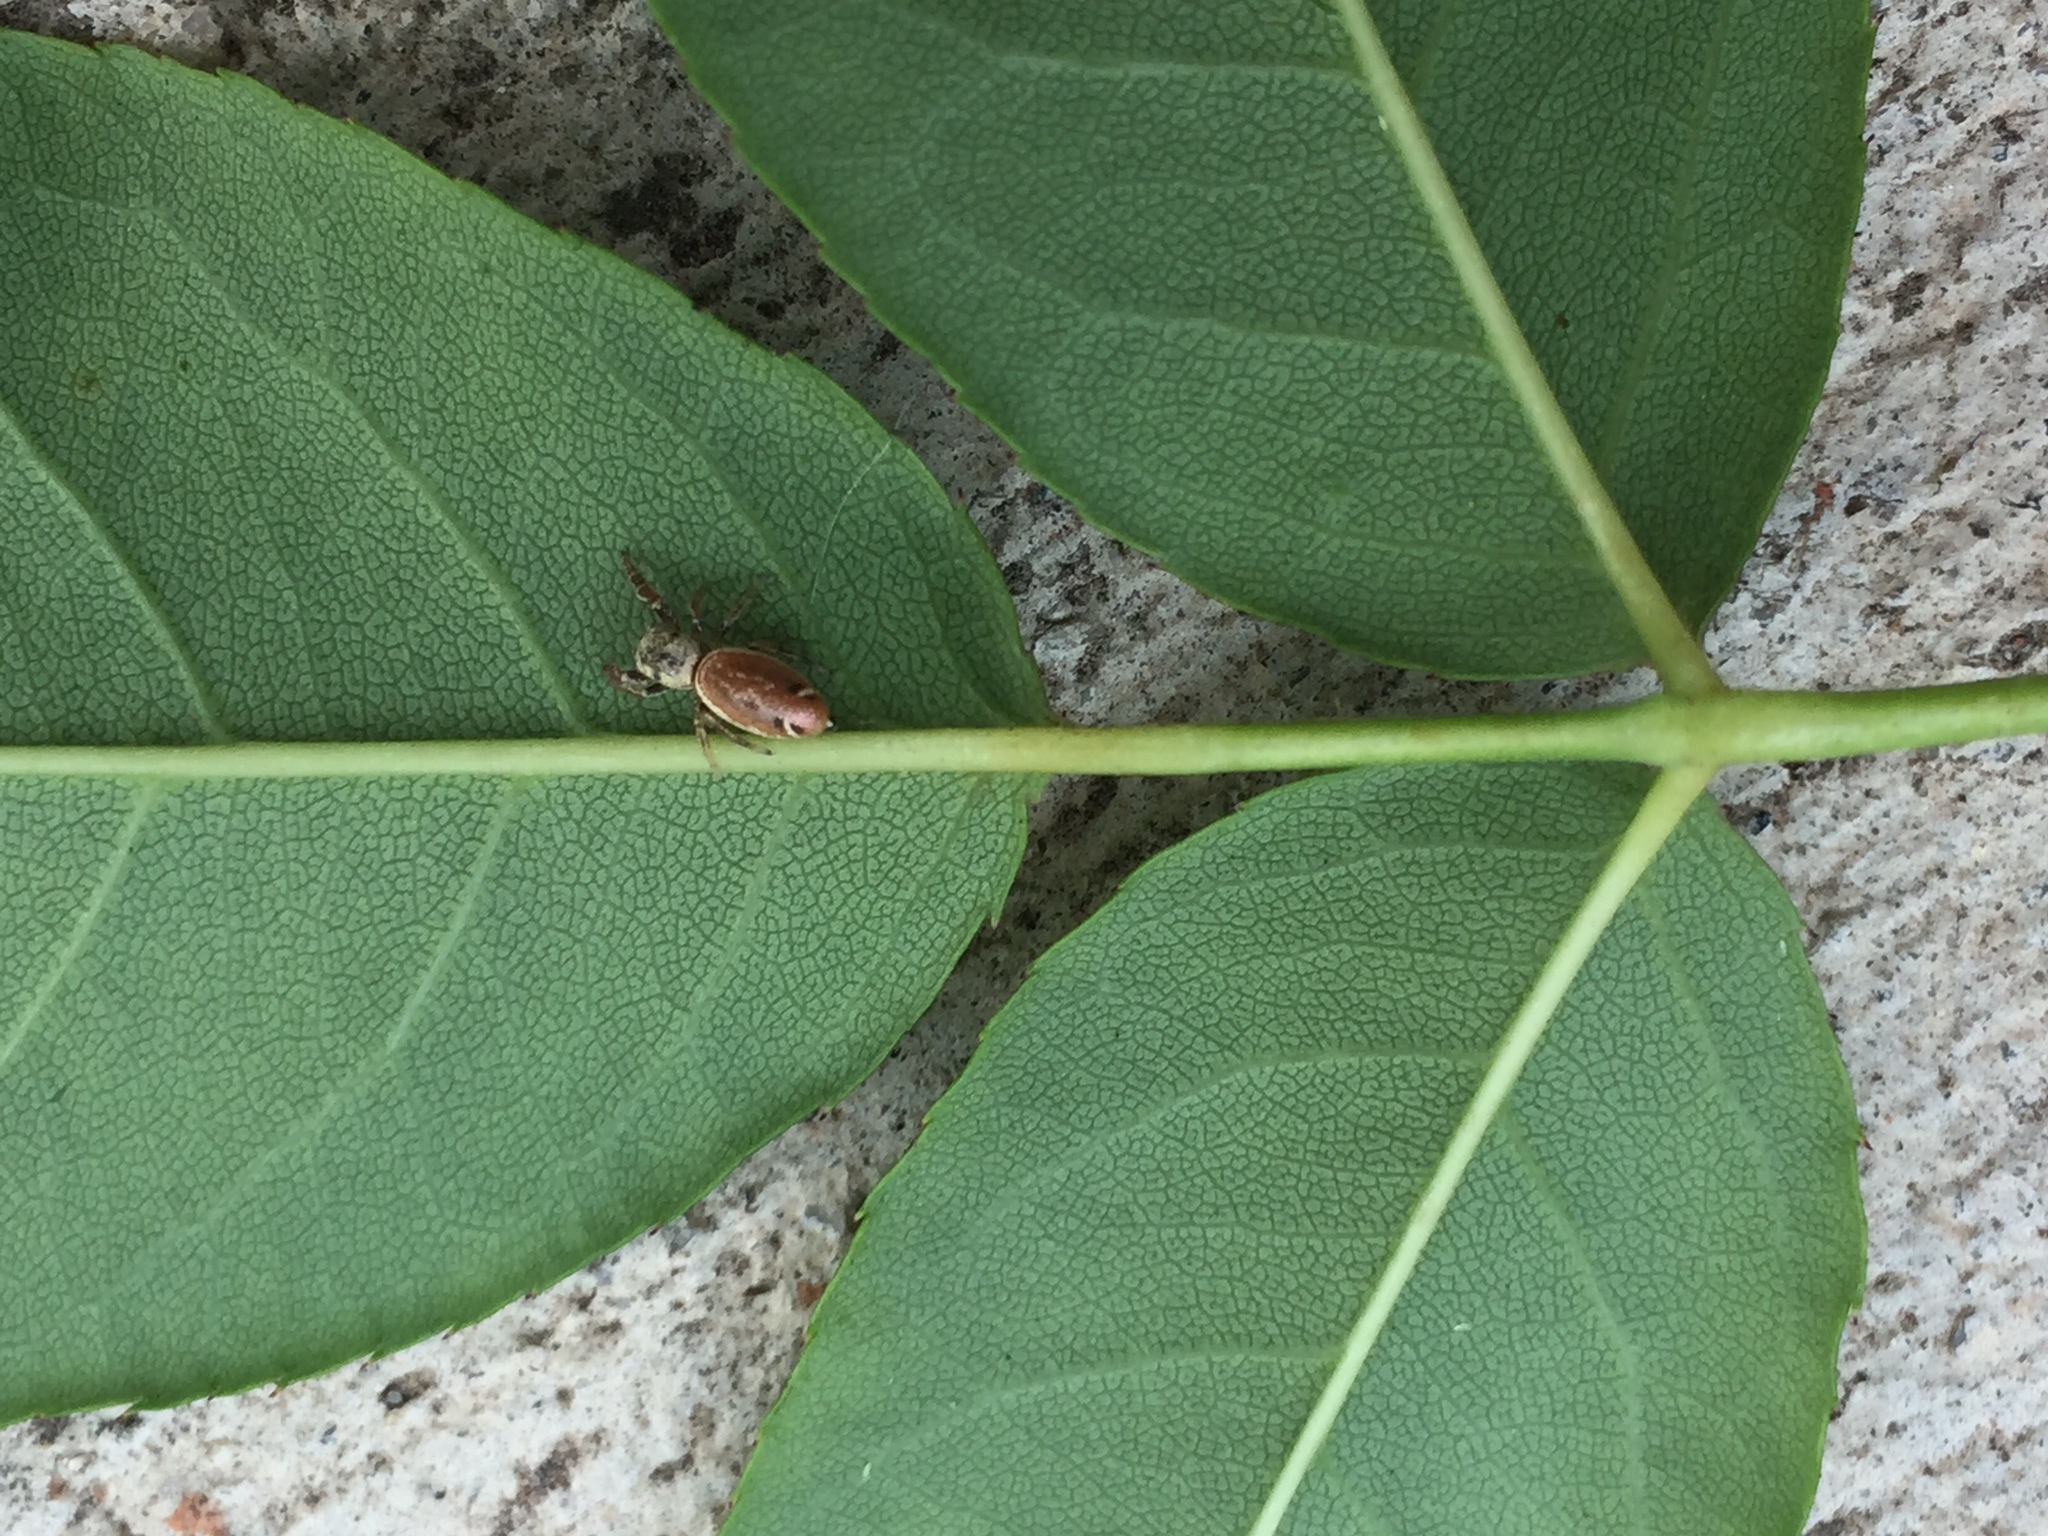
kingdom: Animalia
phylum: Arthropoda
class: Arachnida
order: Araneae
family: Salticidae
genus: Sassacus
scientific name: Sassacus vitis
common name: Jumping spiders
